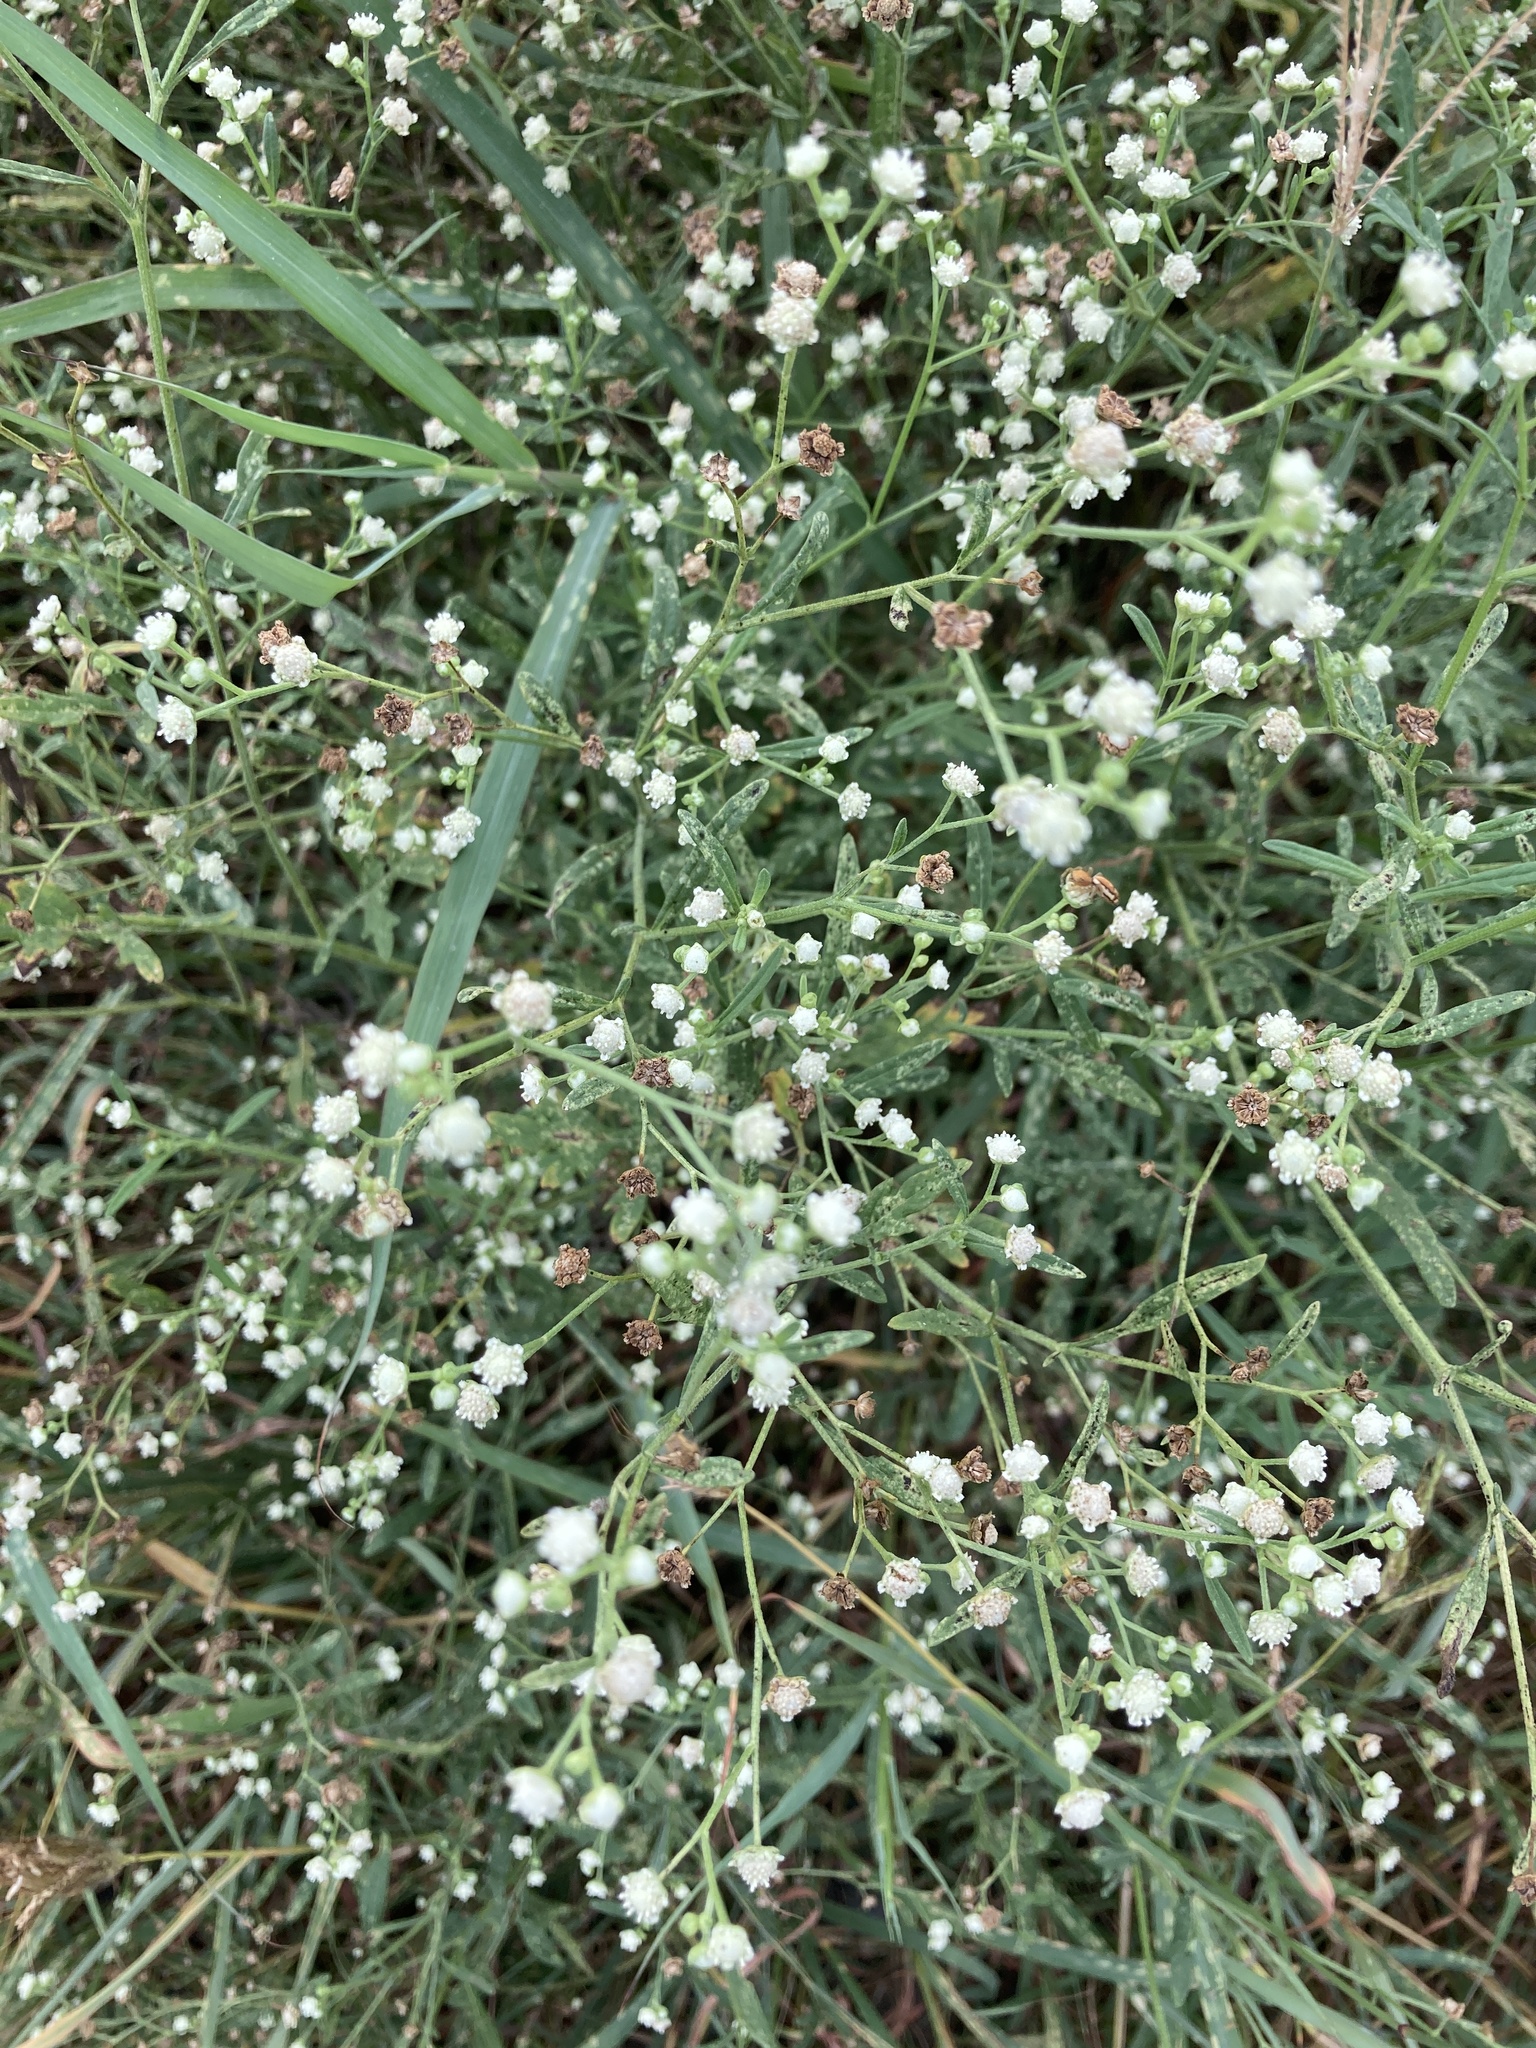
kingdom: Plantae
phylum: Tracheophyta
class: Magnoliopsida
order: Asterales
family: Asteraceae
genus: Parthenium
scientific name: Parthenium hysterophorus
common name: Santa maria feverfew
